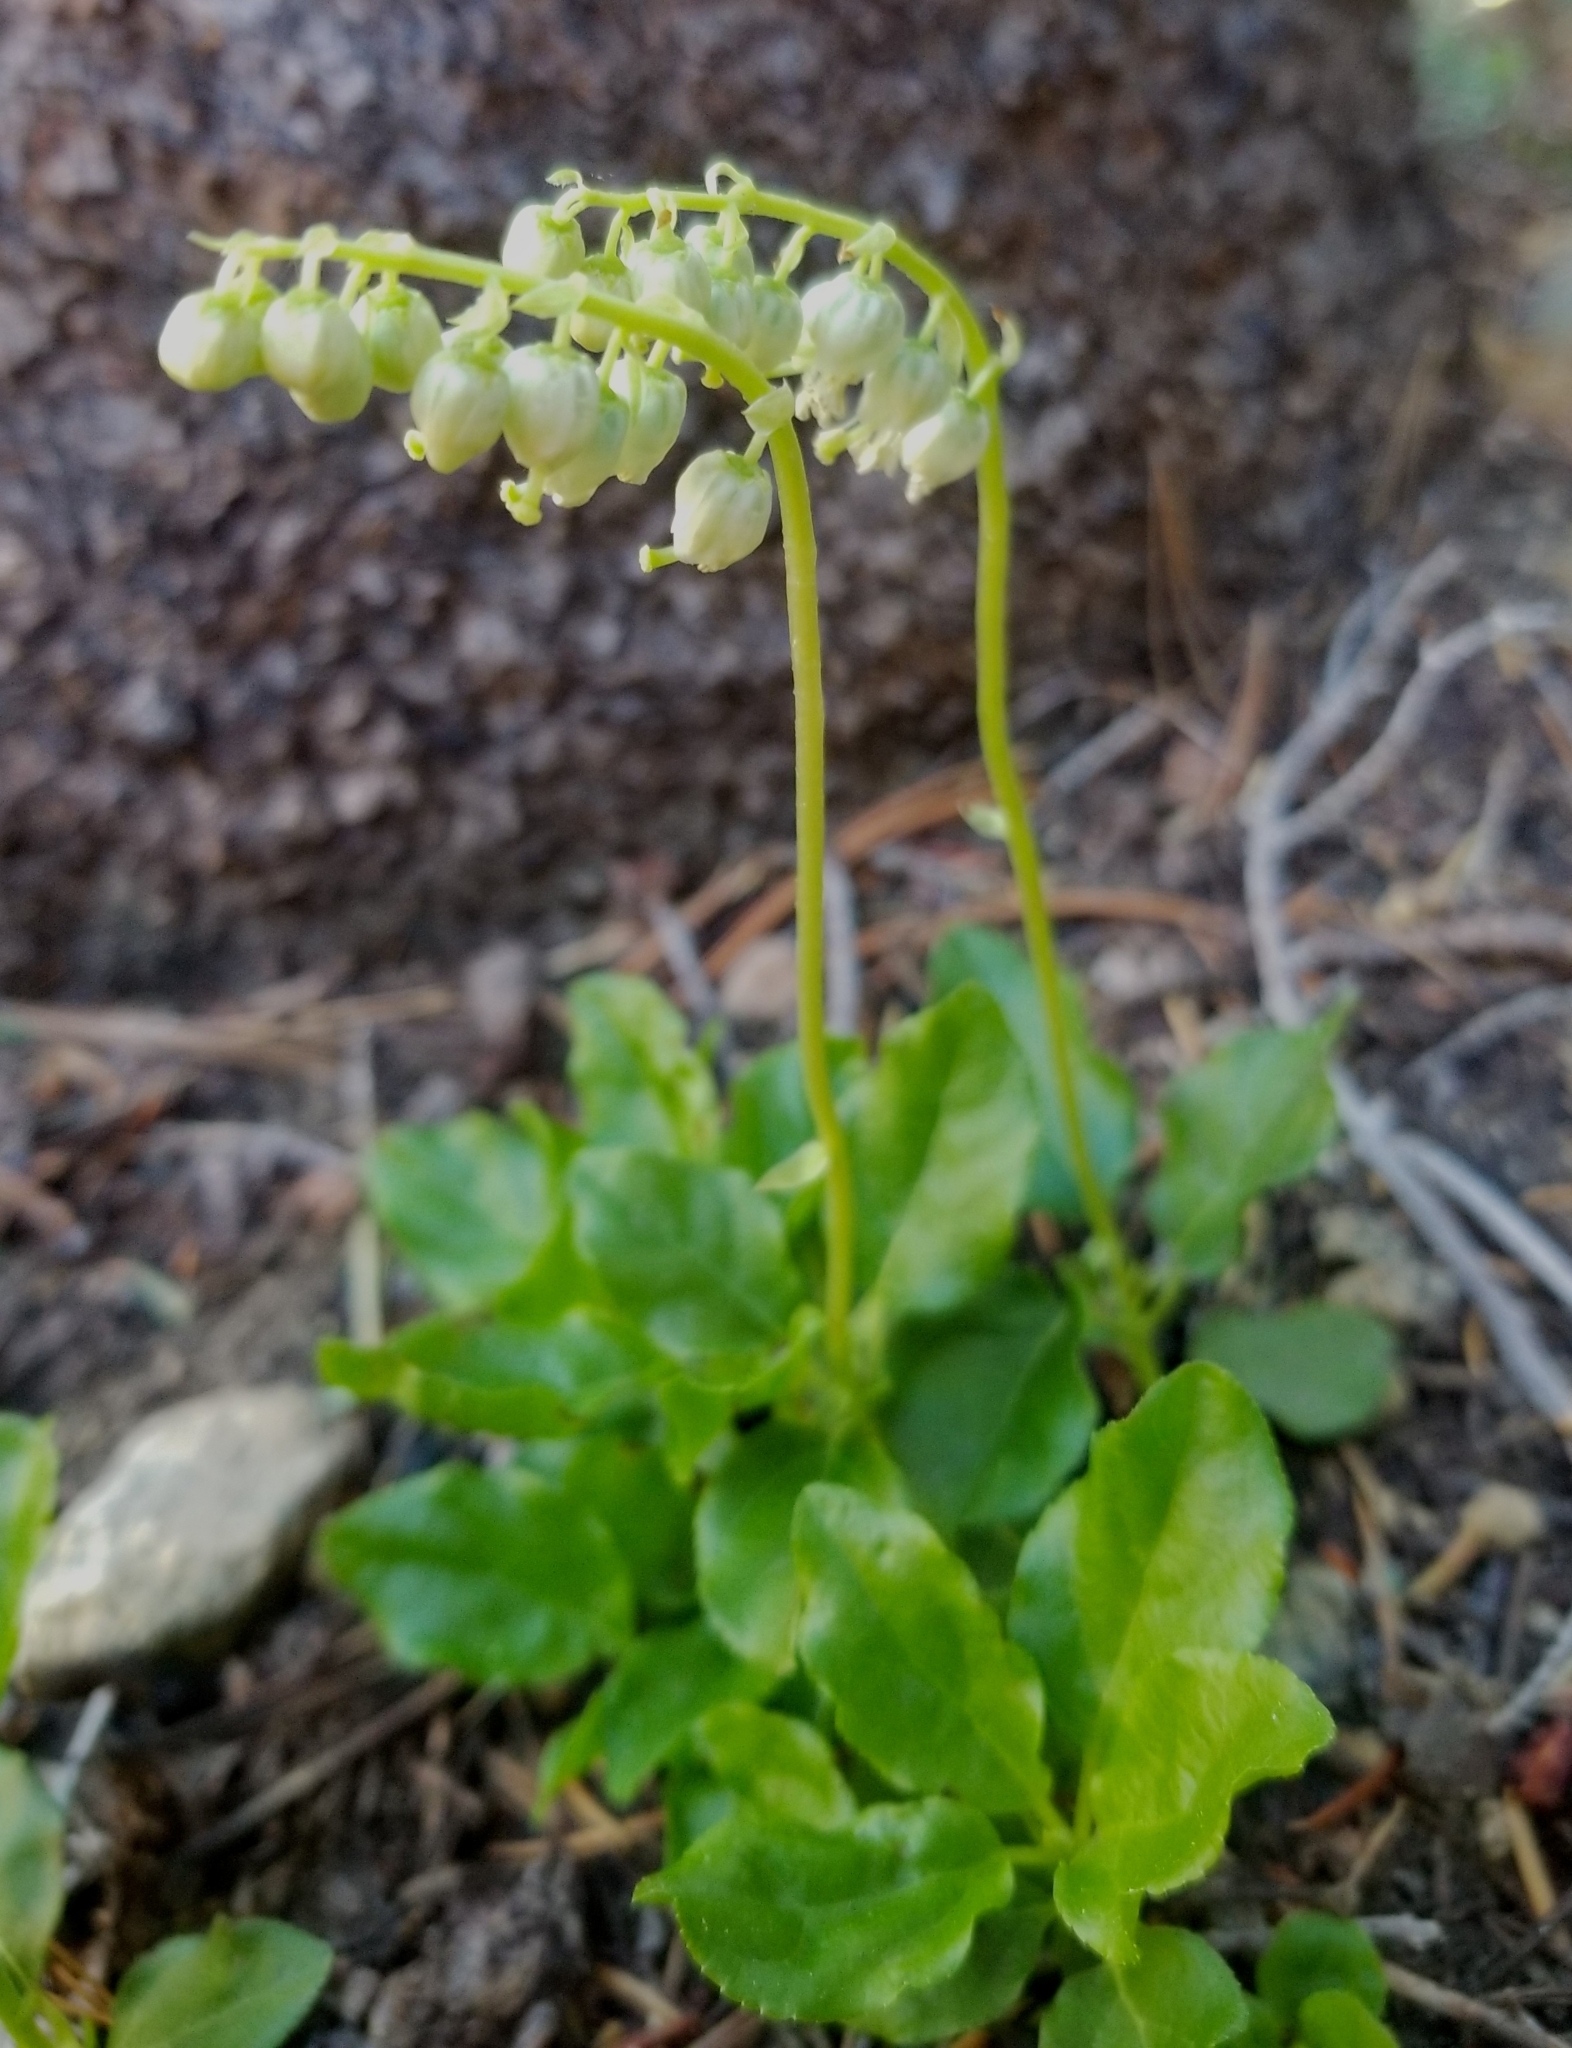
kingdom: Plantae
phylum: Tracheophyta
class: Magnoliopsida
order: Ericales
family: Ericaceae
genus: Orthilia
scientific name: Orthilia secunda
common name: One-sided orthilia
